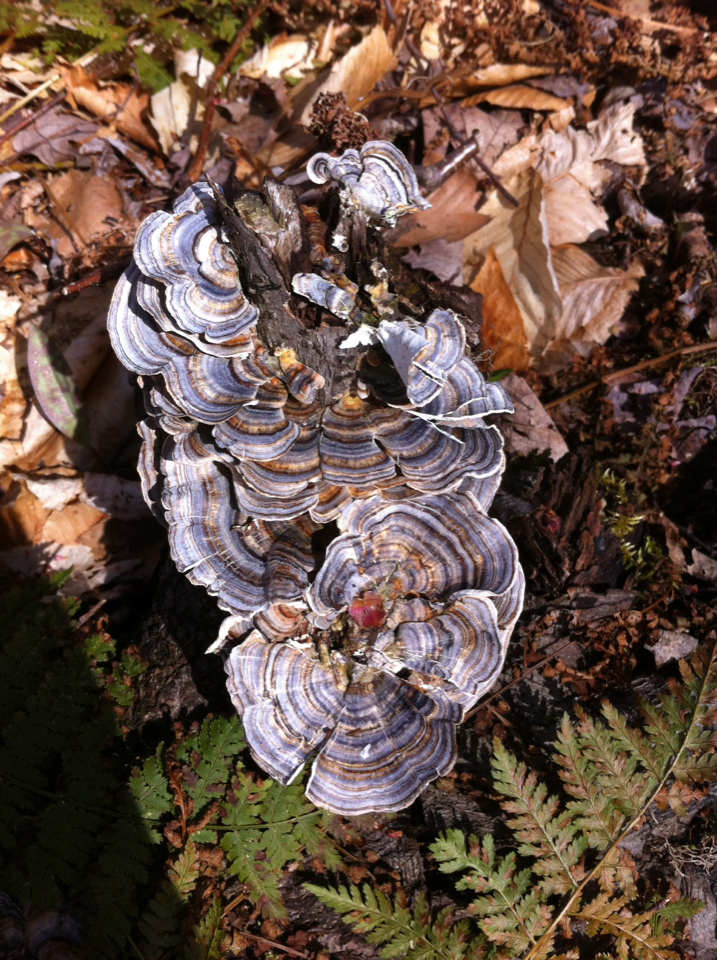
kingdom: Fungi
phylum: Basidiomycota
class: Agaricomycetes
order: Polyporales
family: Polyporaceae
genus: Trametes
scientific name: Trametes versicolor
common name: Turkeytail
